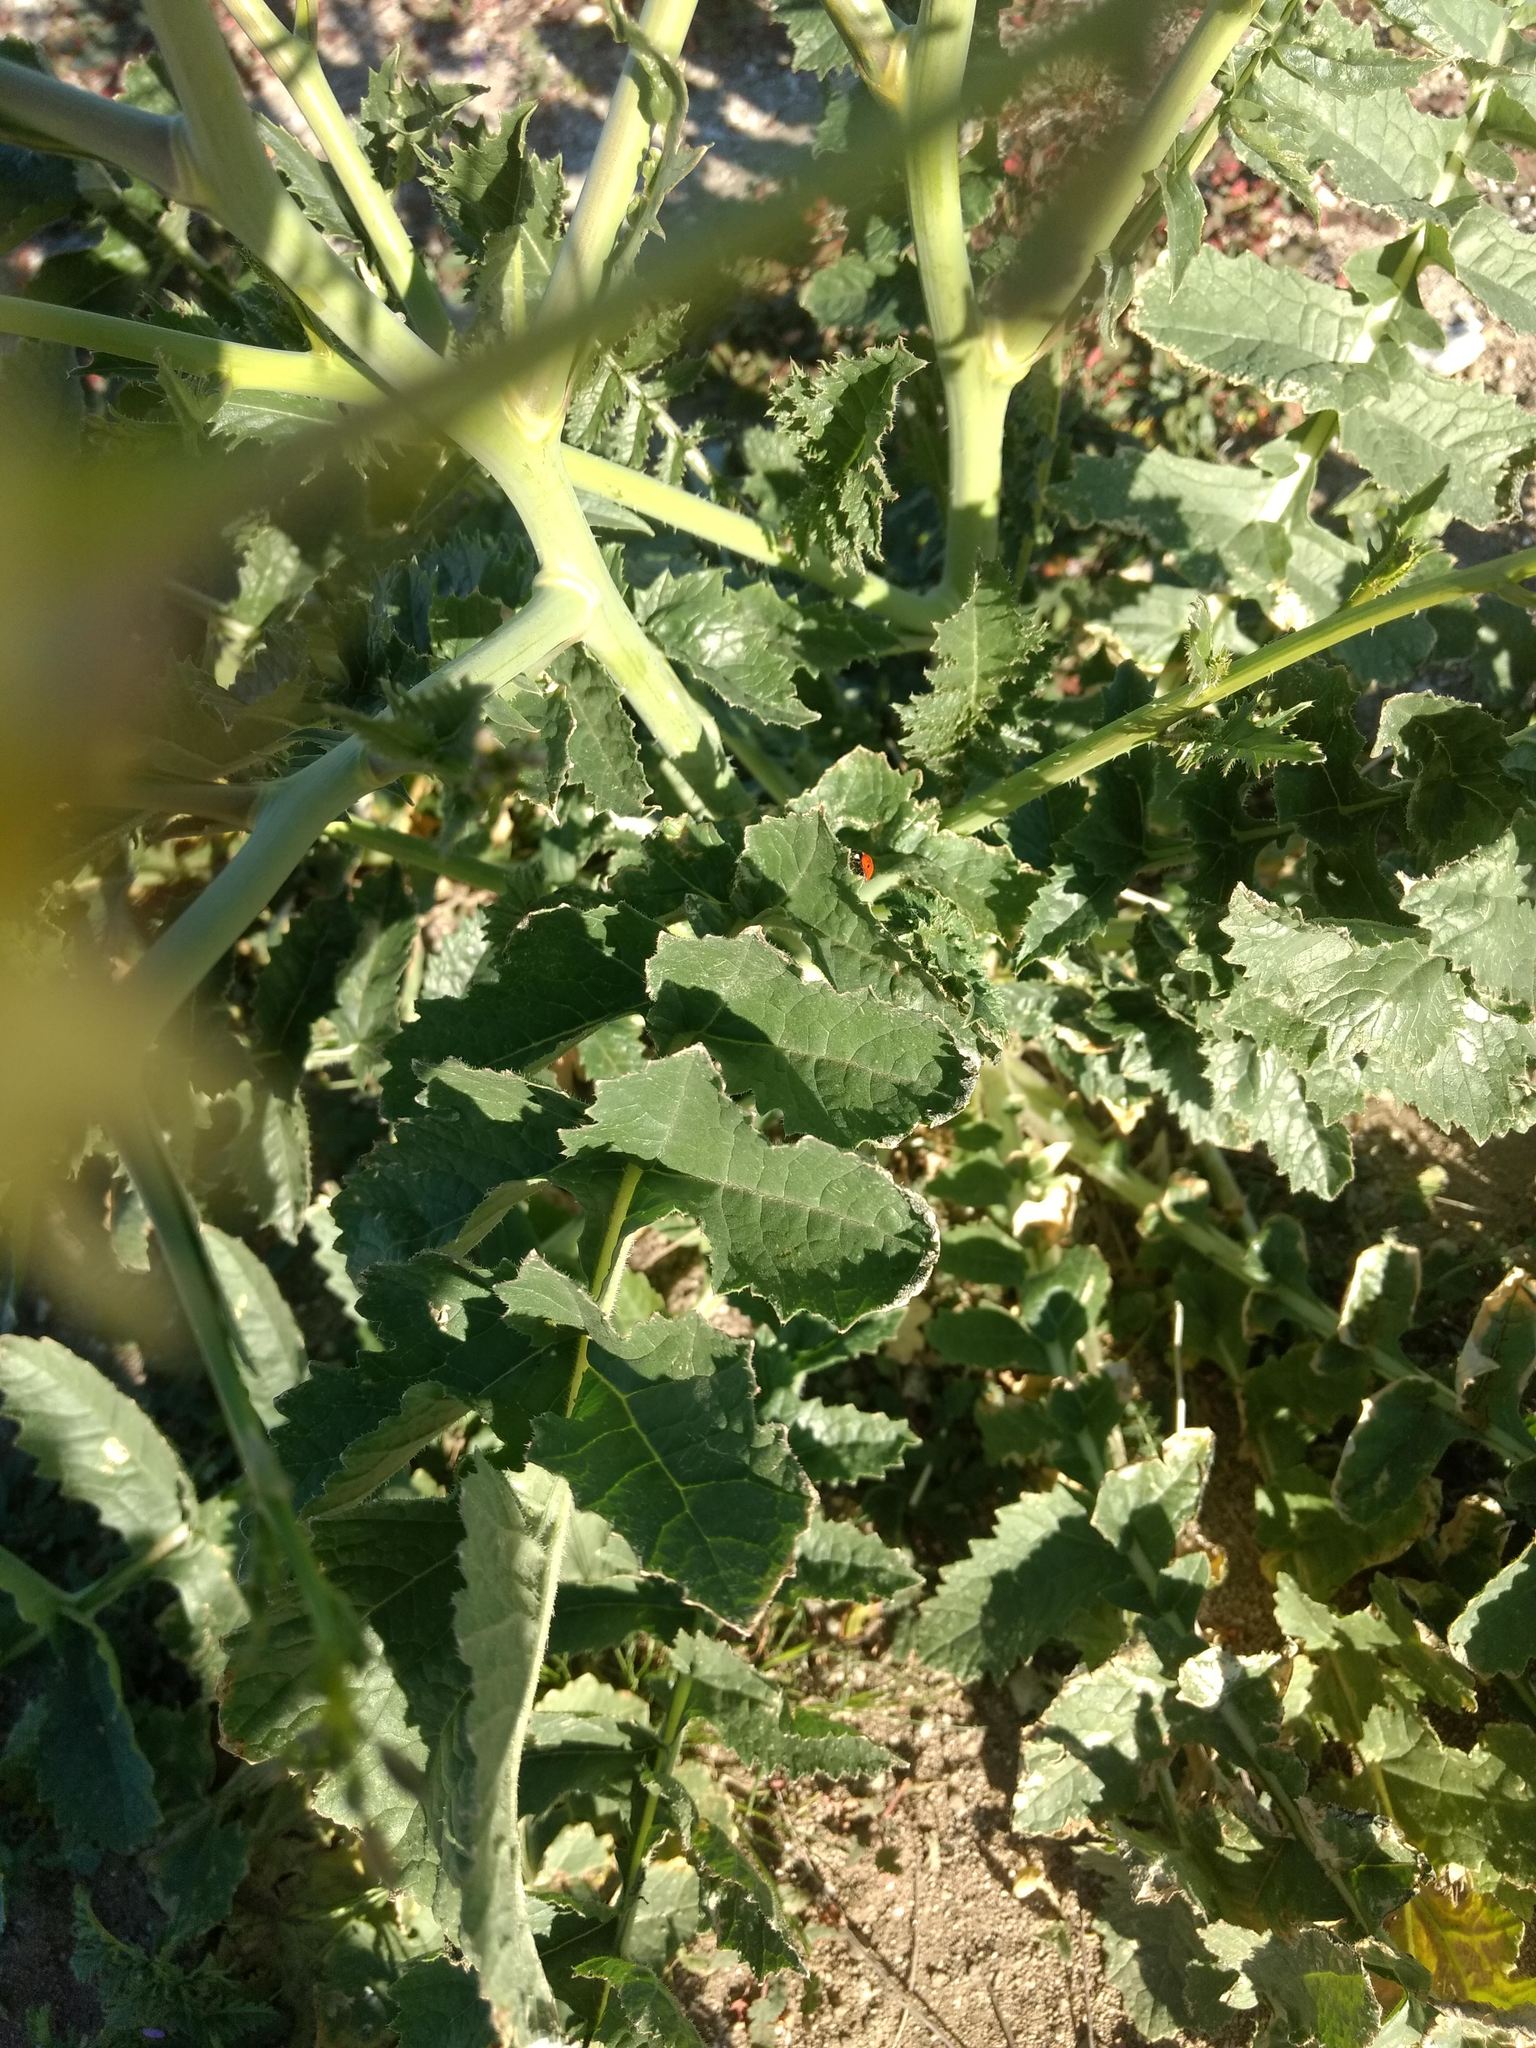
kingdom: Plantae
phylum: Tracheophyta
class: Magnoliopsida
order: Brassicales
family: Brassicaceae
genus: Brassica
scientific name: Brassica tournefortii
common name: Pale cabbage
